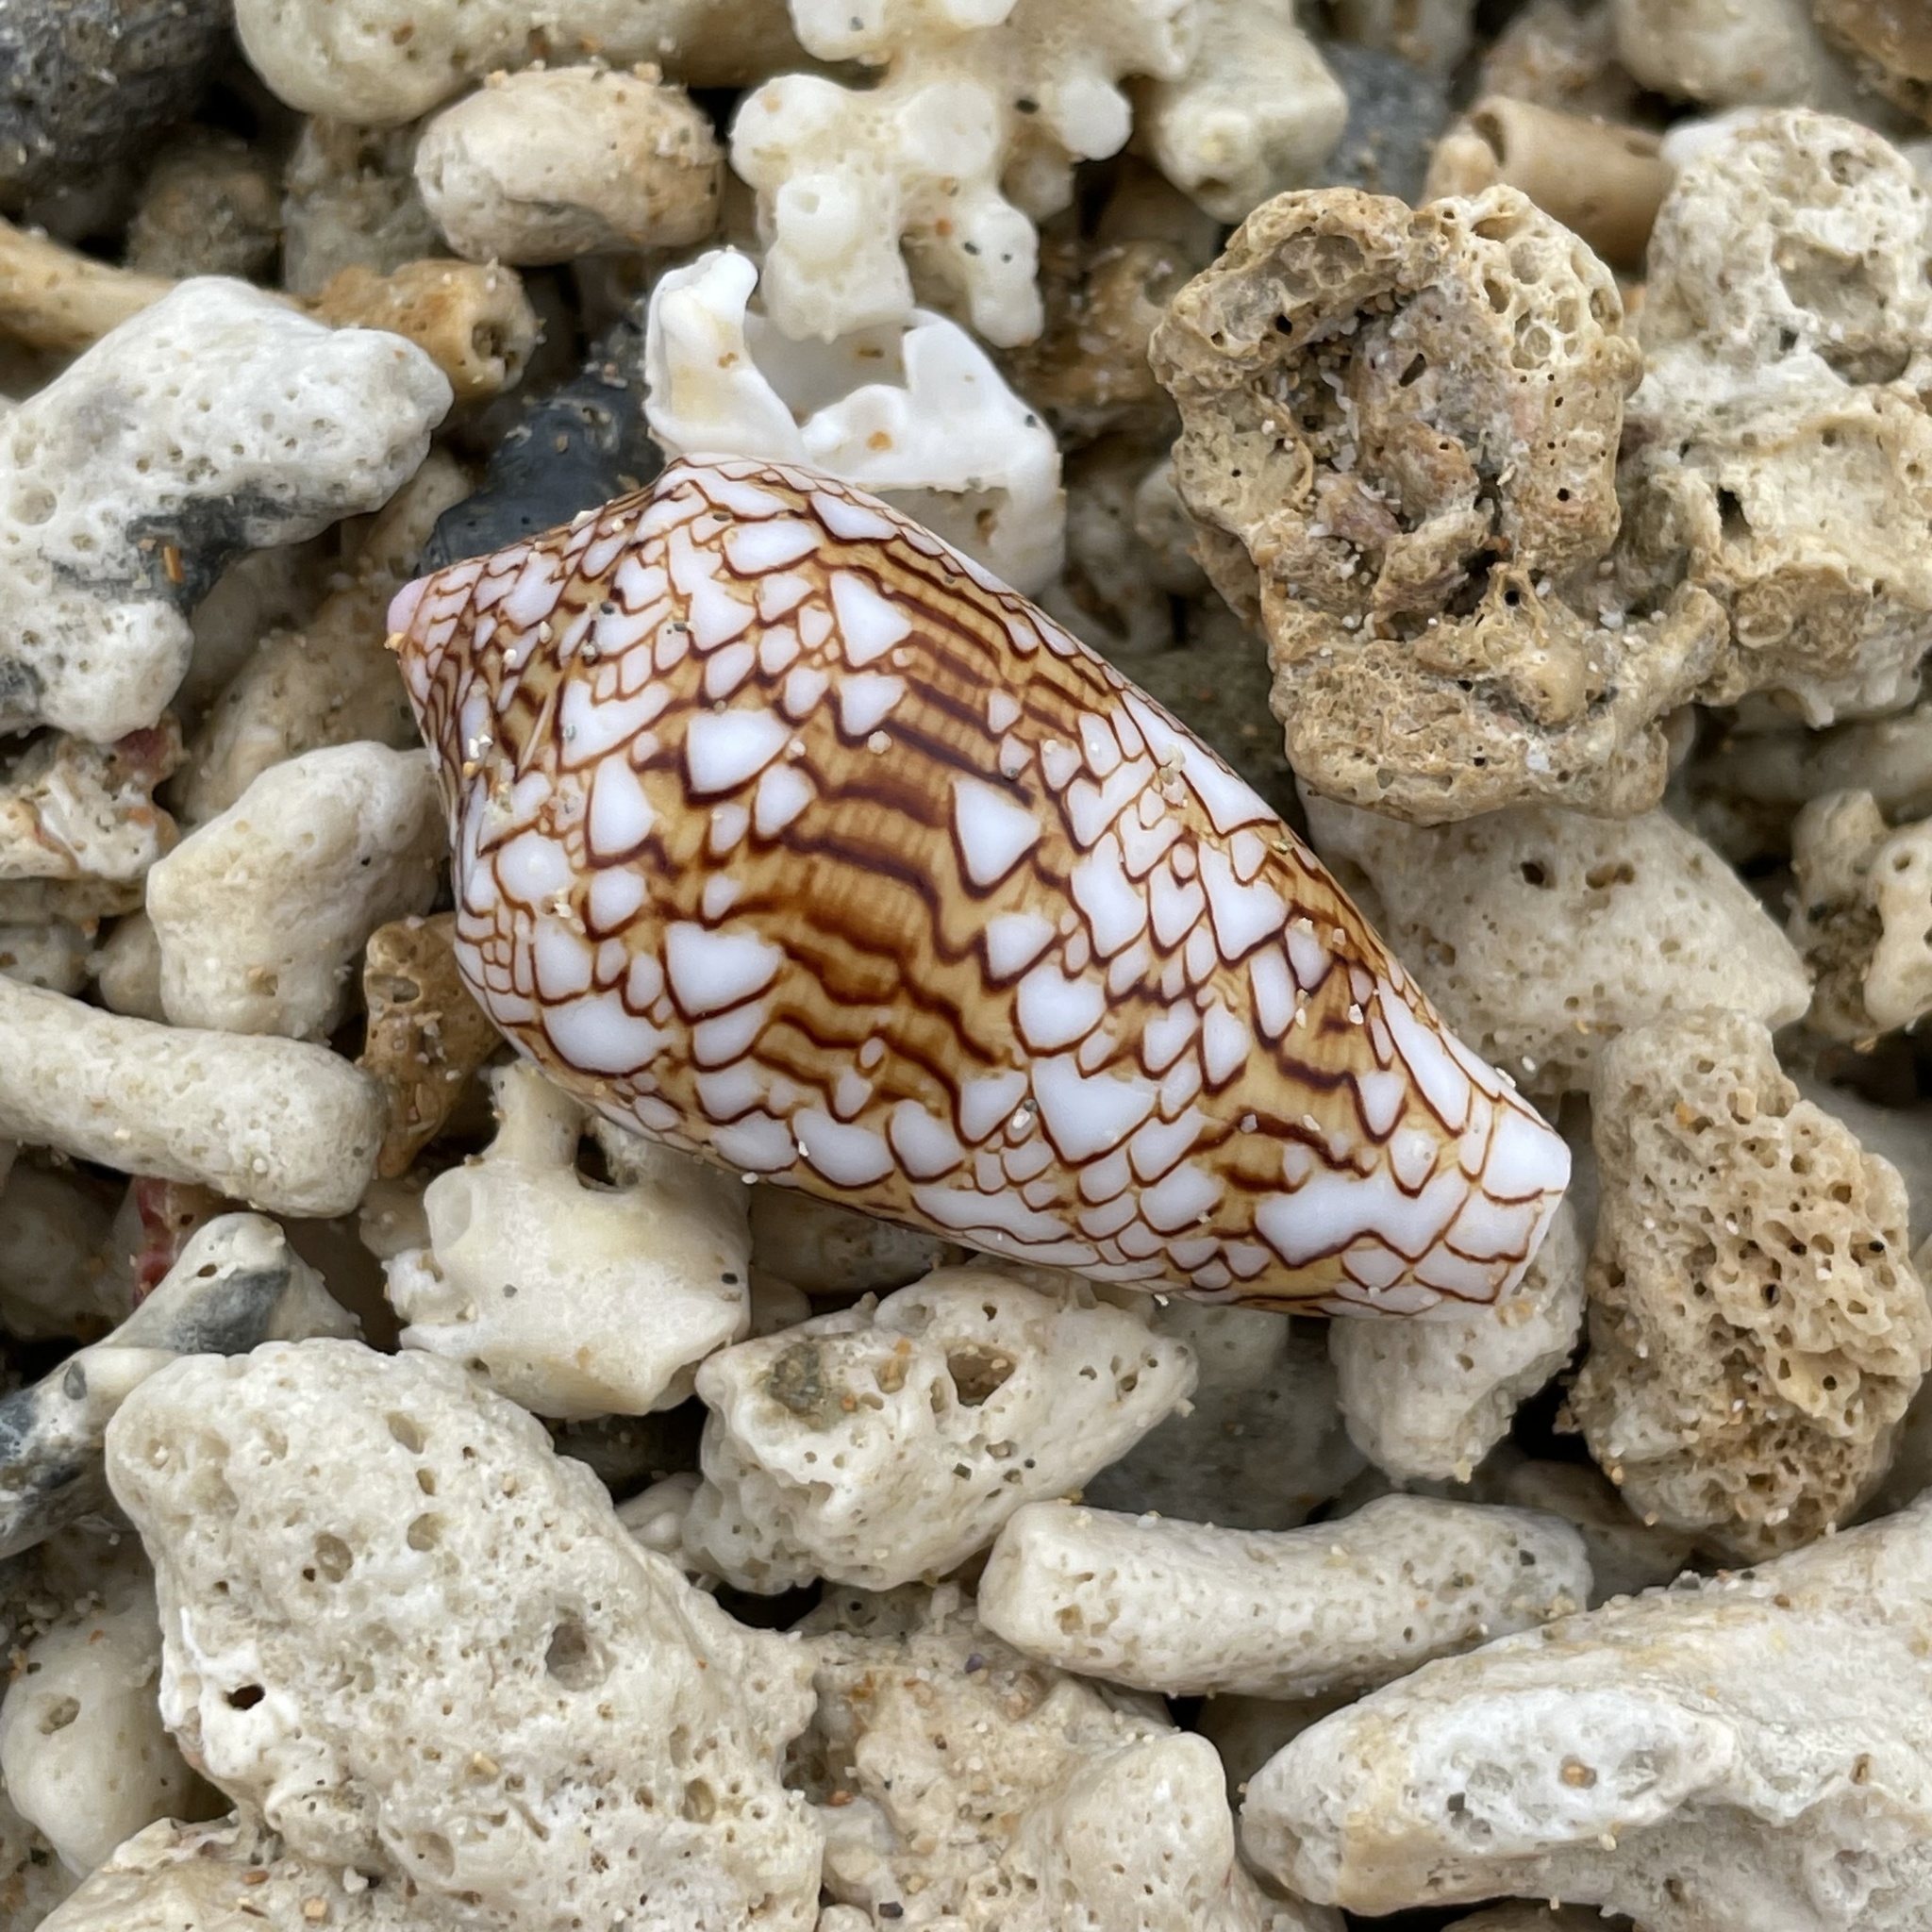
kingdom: Animalia
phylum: Mollusca
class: Gastropoda
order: Neogastropoda
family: Conidae
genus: Conus
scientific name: Conus textile
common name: Cloth-of-gold cone
